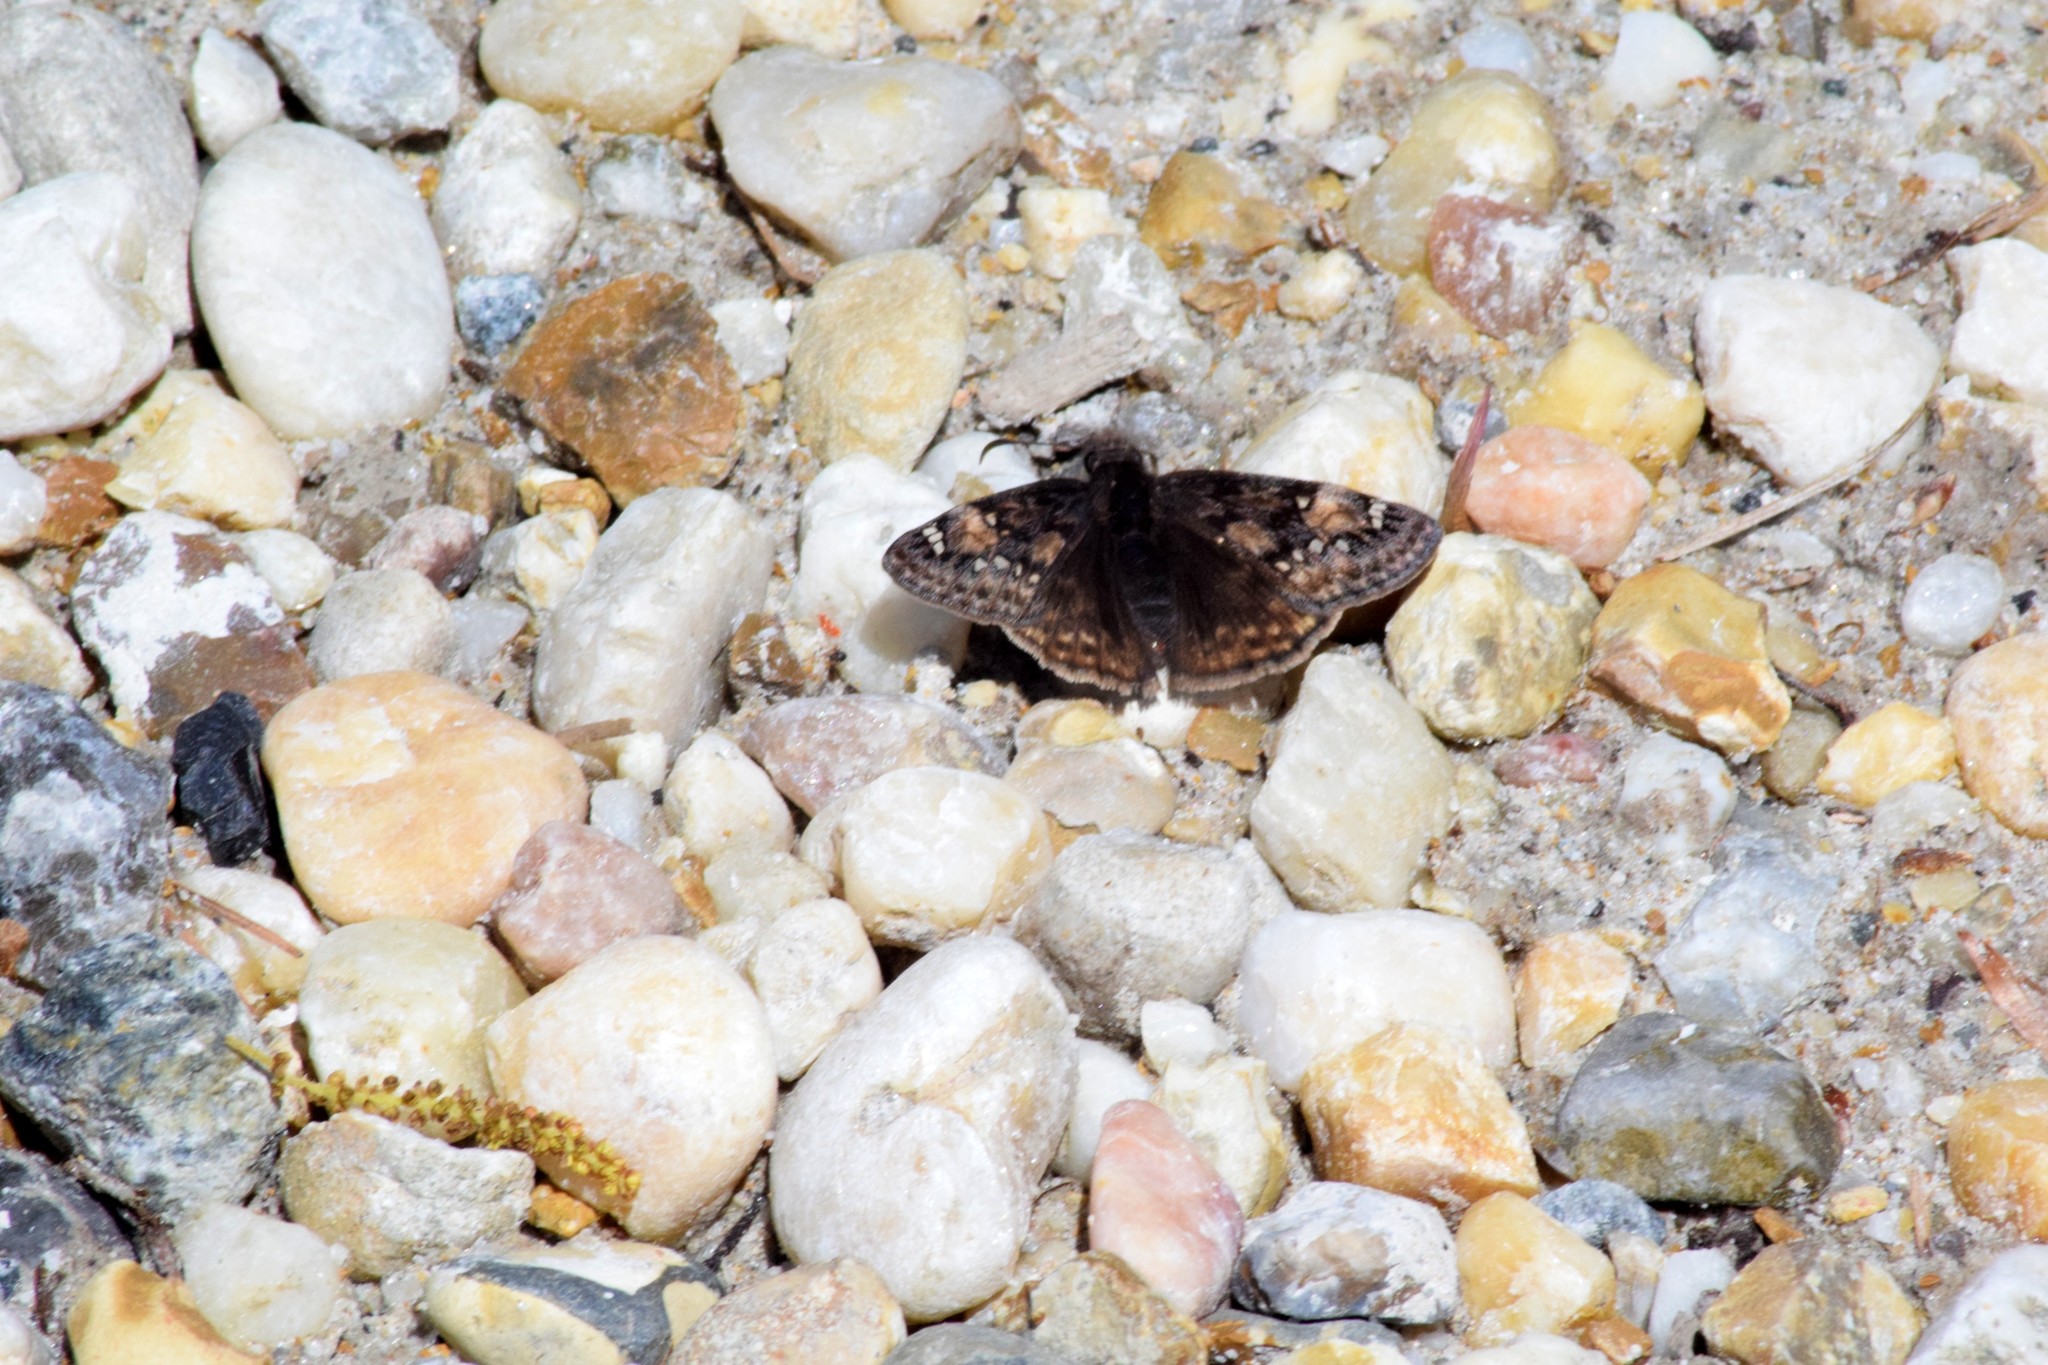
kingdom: Animalia
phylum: Arthropoda
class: Insecta
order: Lepidoptera
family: Hesperiidae
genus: Erynnis
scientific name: Erynnis juvenalis
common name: Juvenal's duskywing
